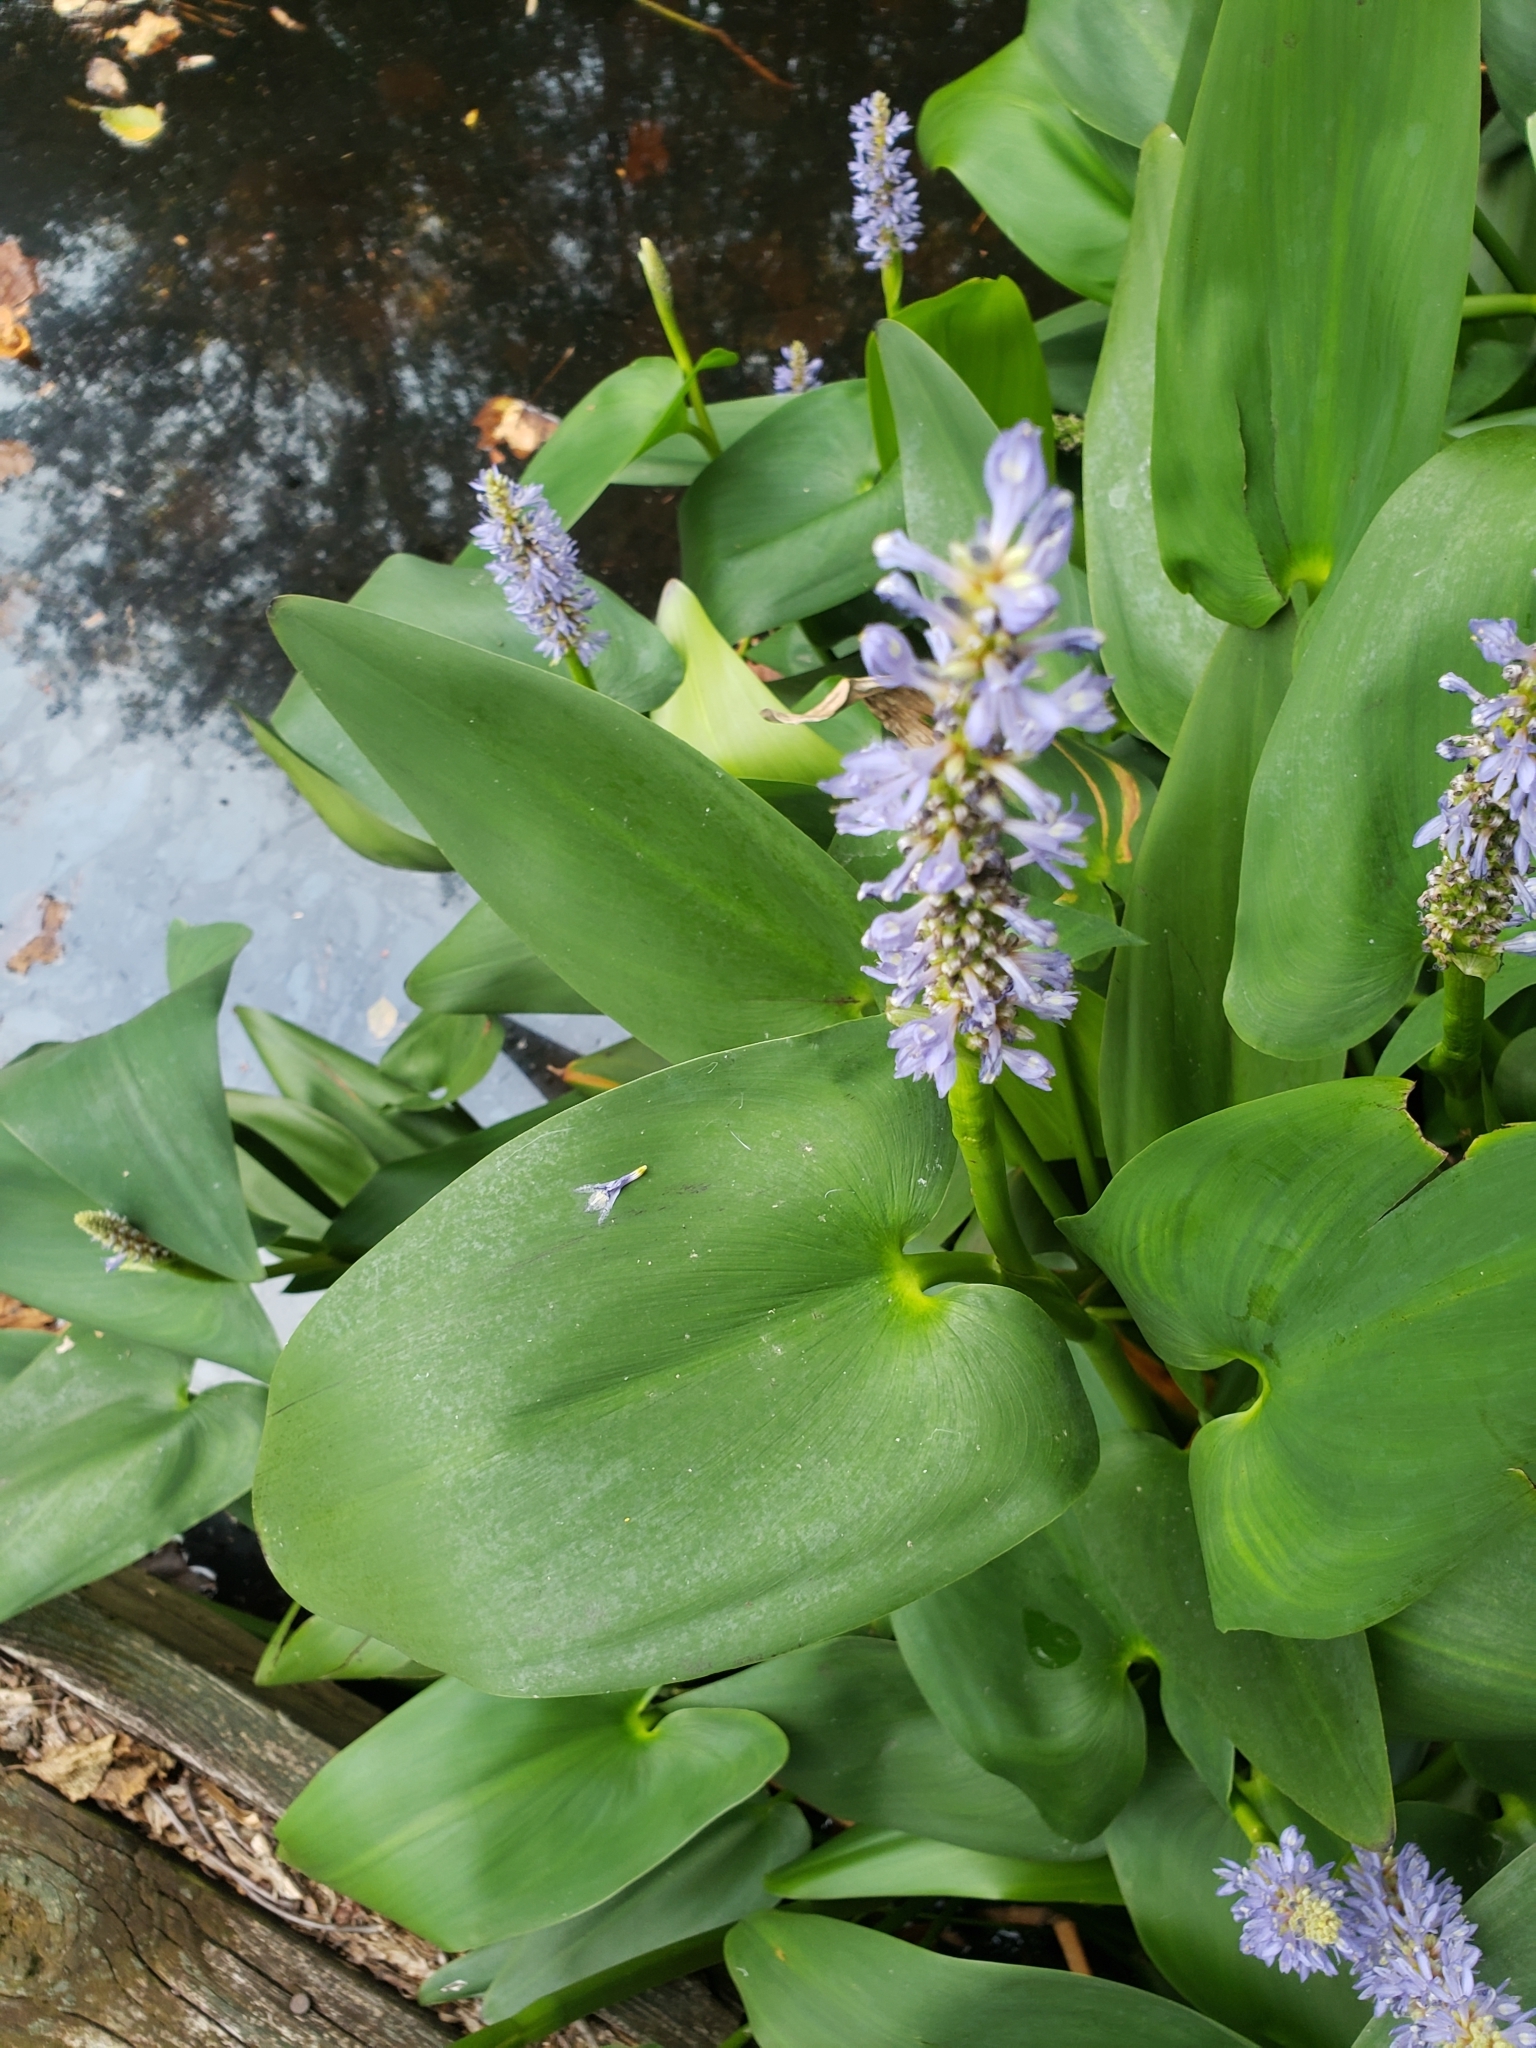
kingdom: Plantae
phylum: Tracheophyta
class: Liliopsida
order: Commelinales
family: Pontederiaceae
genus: Pontederia
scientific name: Pontederia cordata
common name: Pickerelweed
